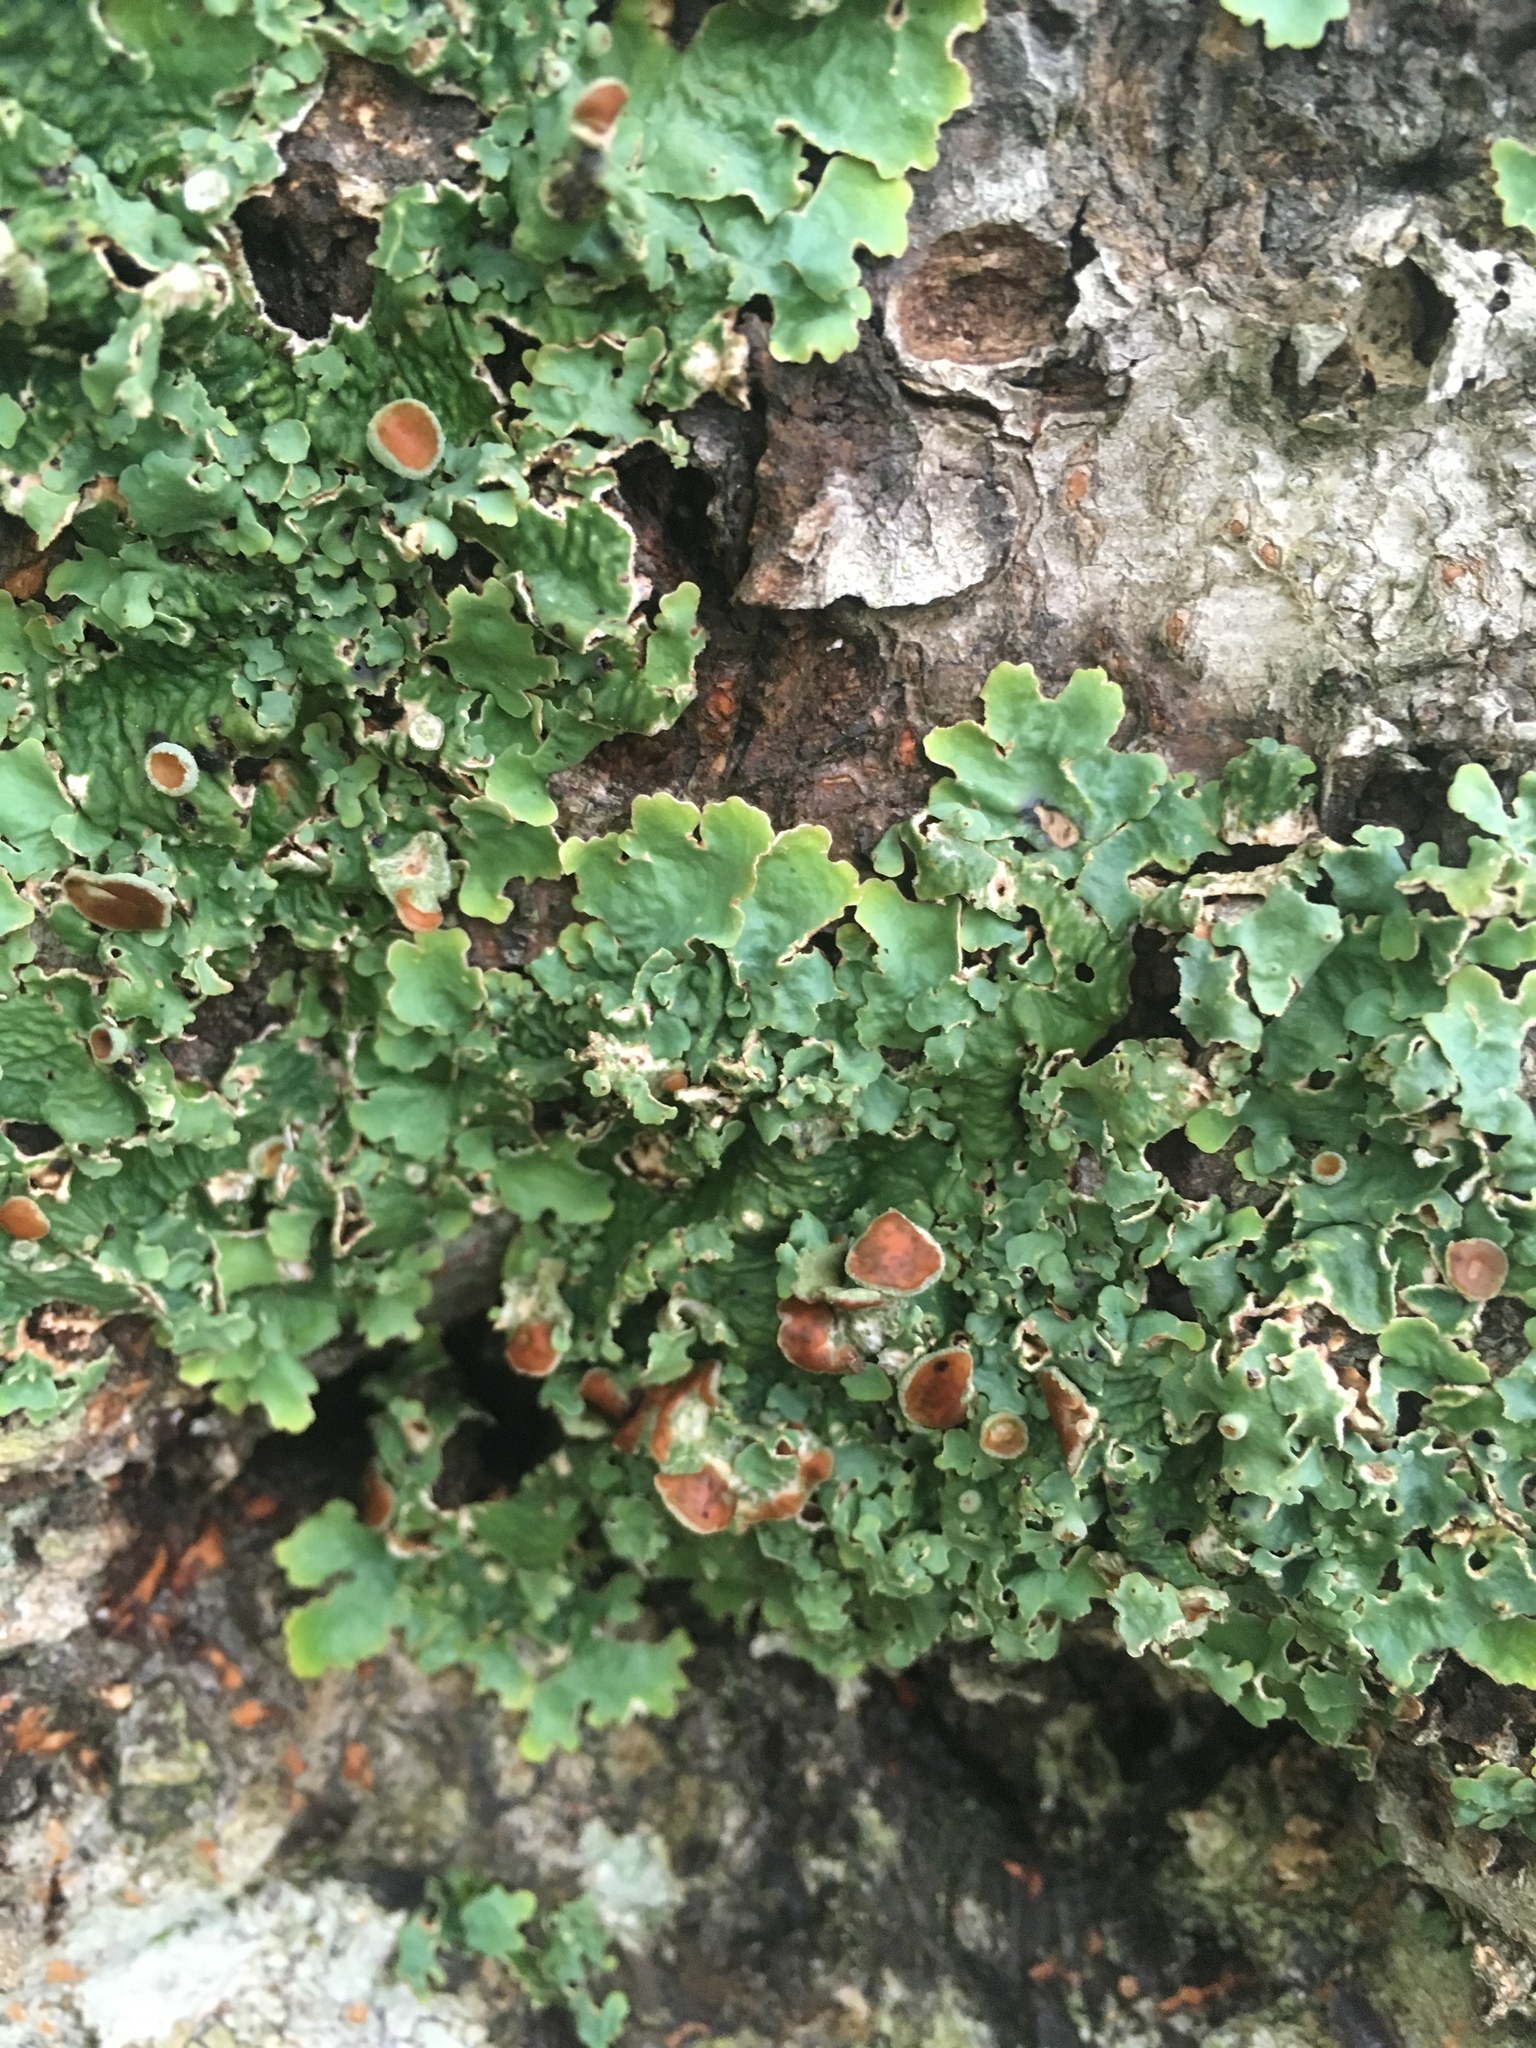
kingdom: Fungi
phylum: Ascomycota
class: Lecanoromycetes
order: Peltigerales
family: Lobariaceae
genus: Ricasolia
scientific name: Ricasolia quercizans
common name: Smooth lungwort
